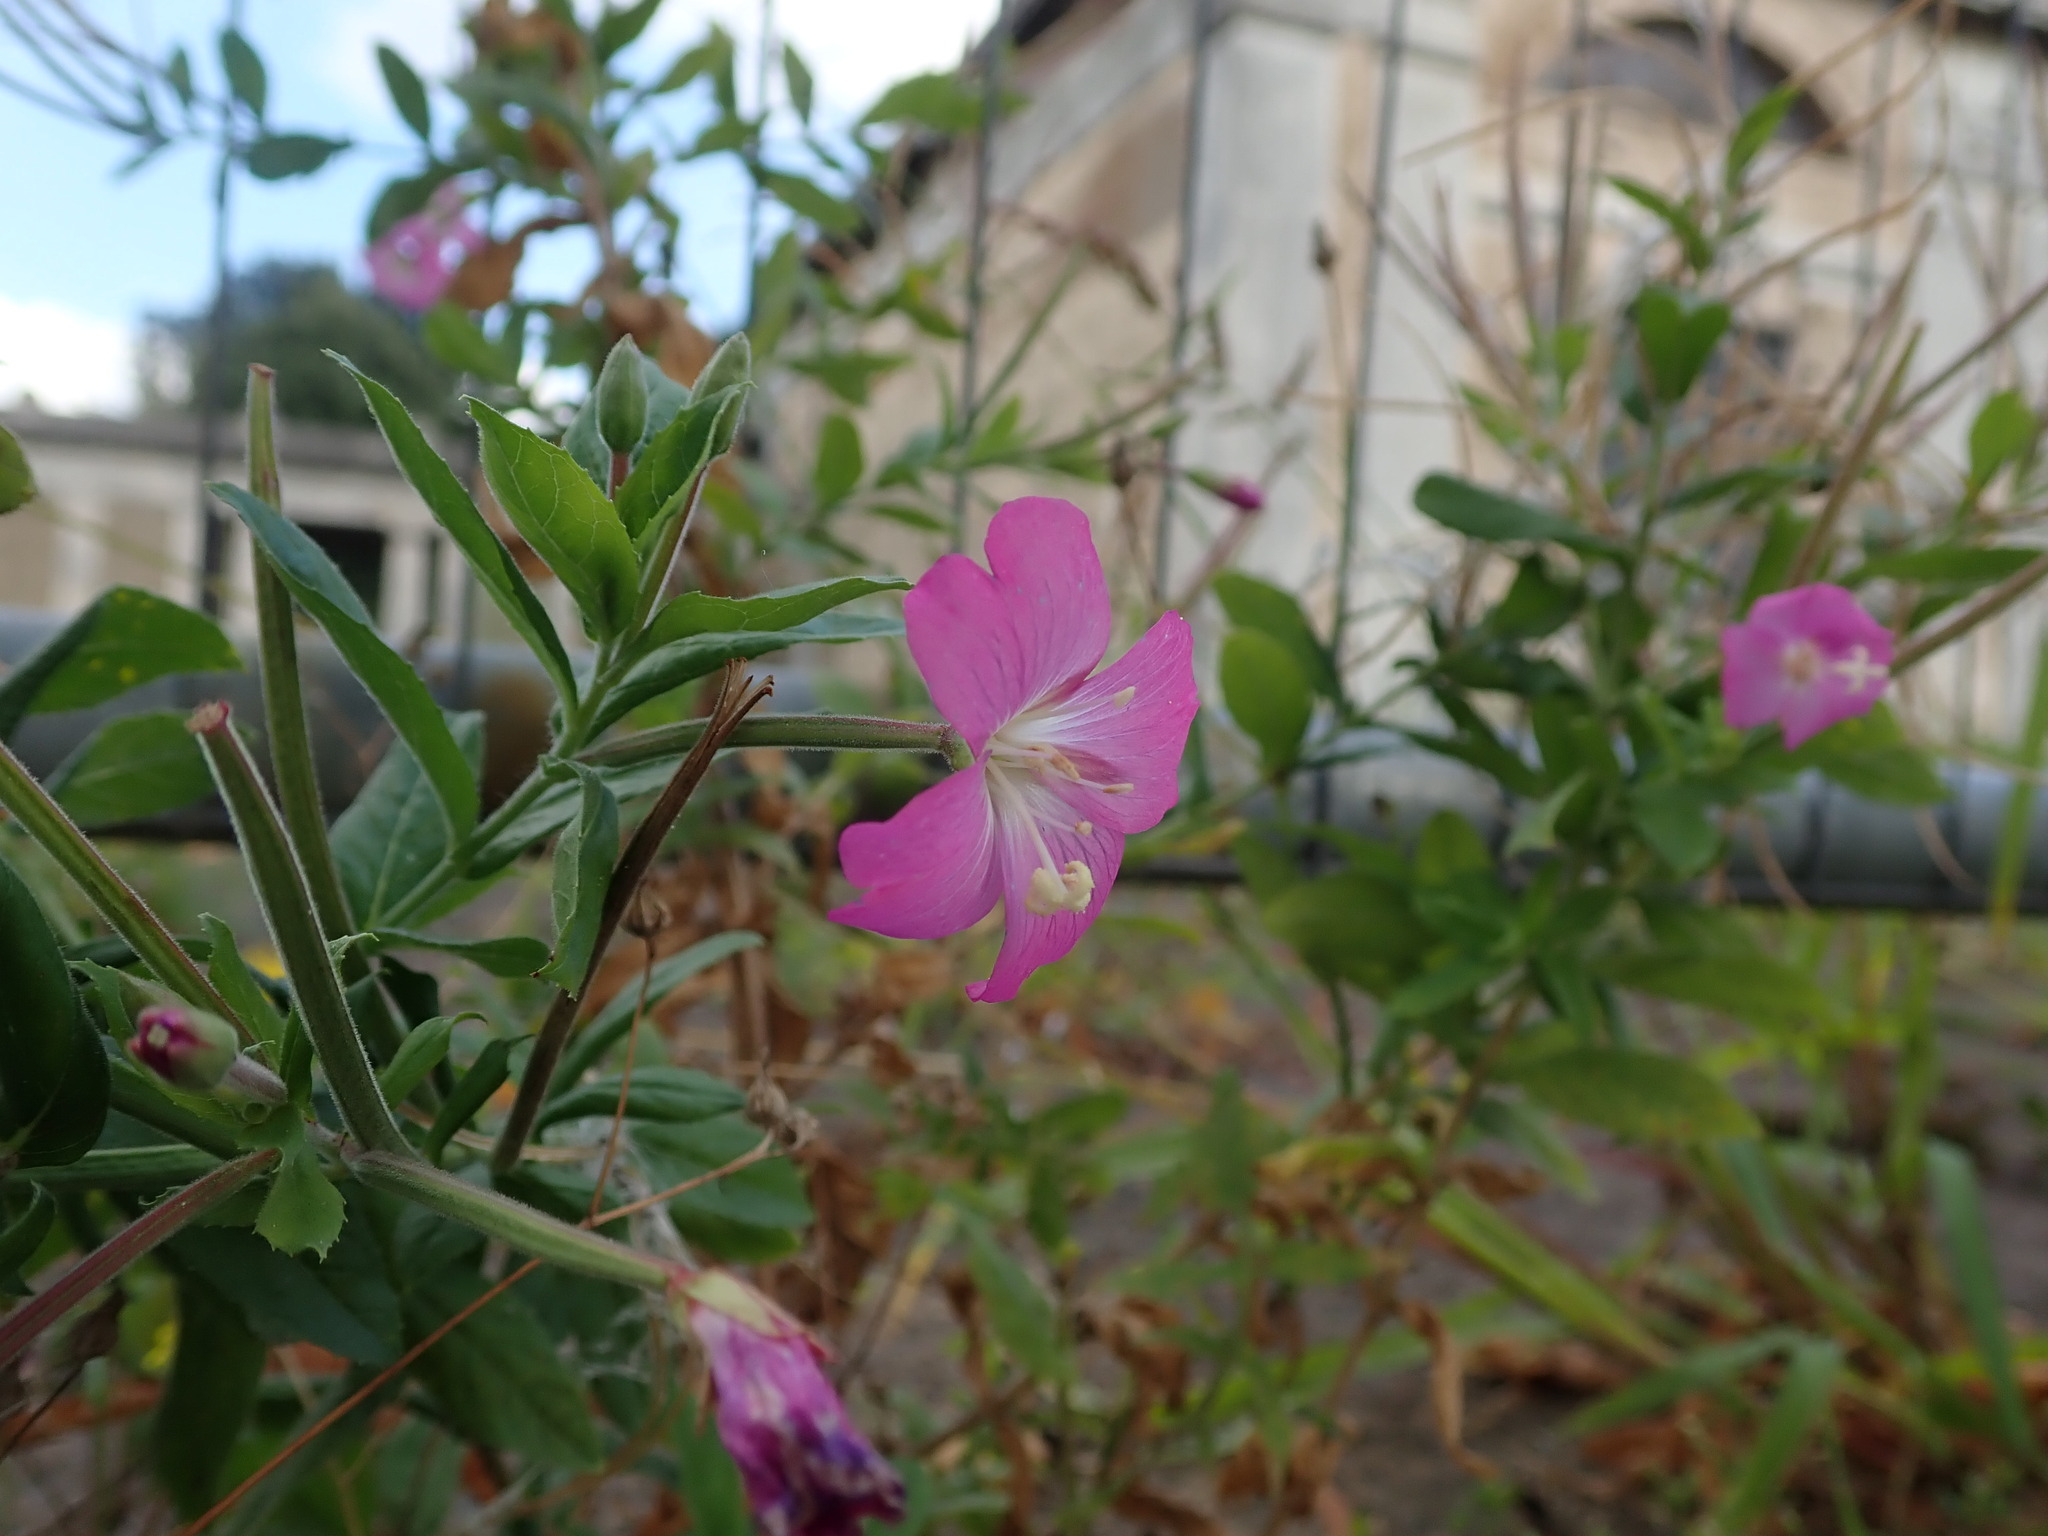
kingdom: Plantae
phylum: Tracheophyta
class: Magnoliopsida
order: Myrtales
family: Onagraceae
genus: Epilobium
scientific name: Epilobium hirsutum
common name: Great willowherb
